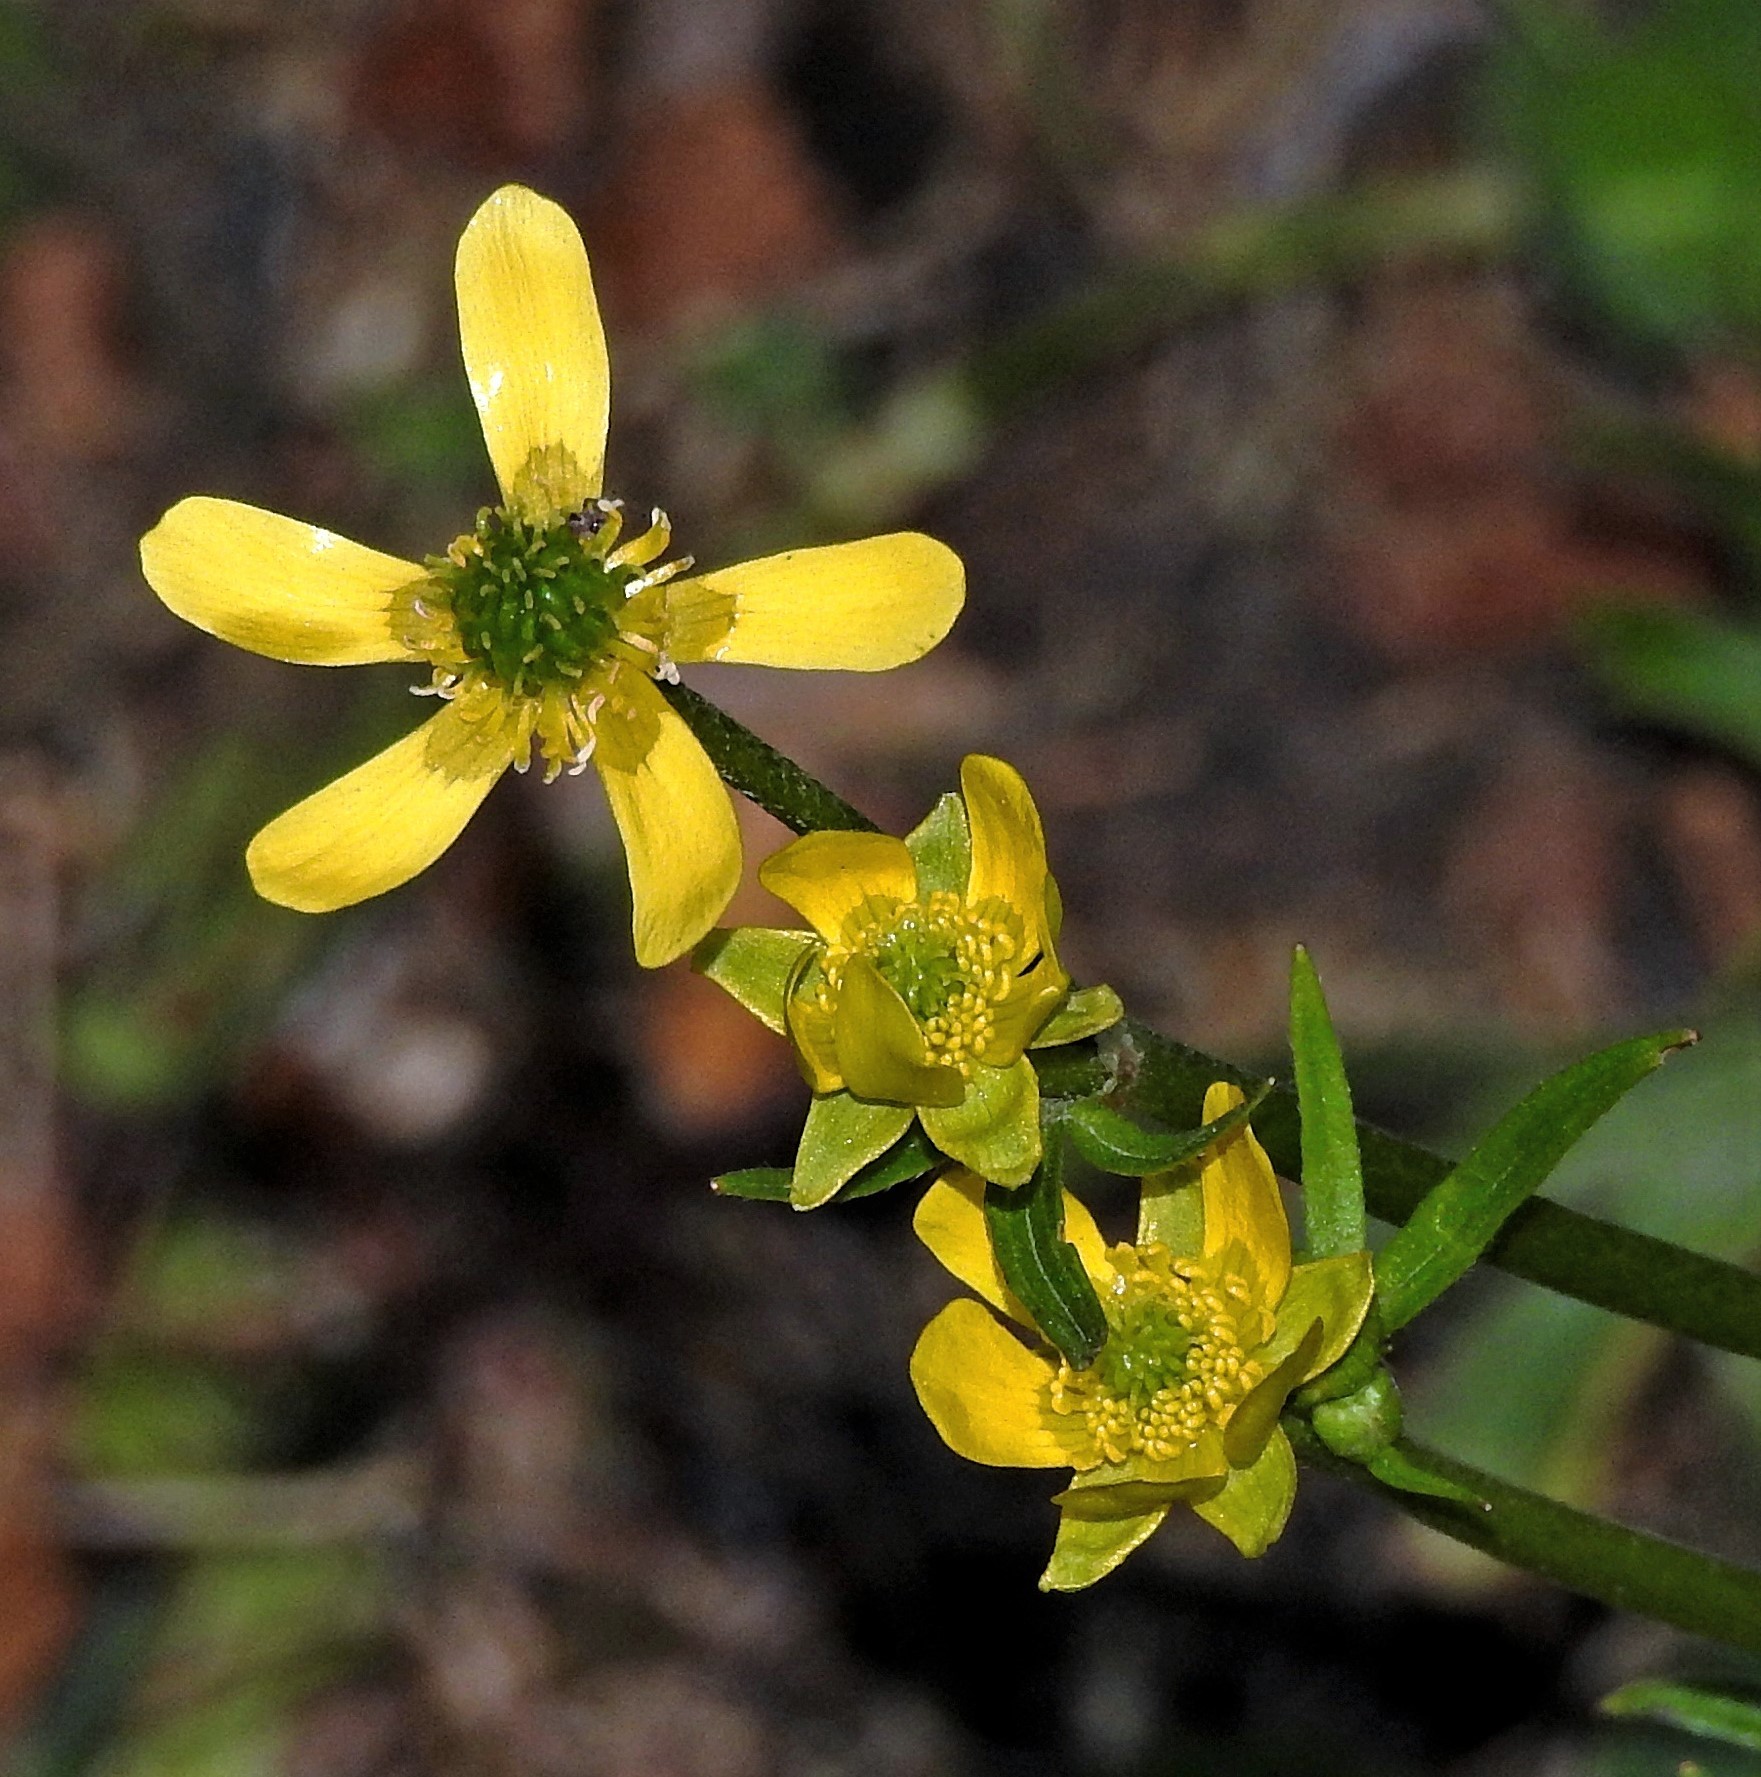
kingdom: Plantae
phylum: Tracheophyta
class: Magnoliopsida
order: Ranunculales
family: Ranunculaceae
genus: Ranunculus
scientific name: Ranunculus peduncularis
